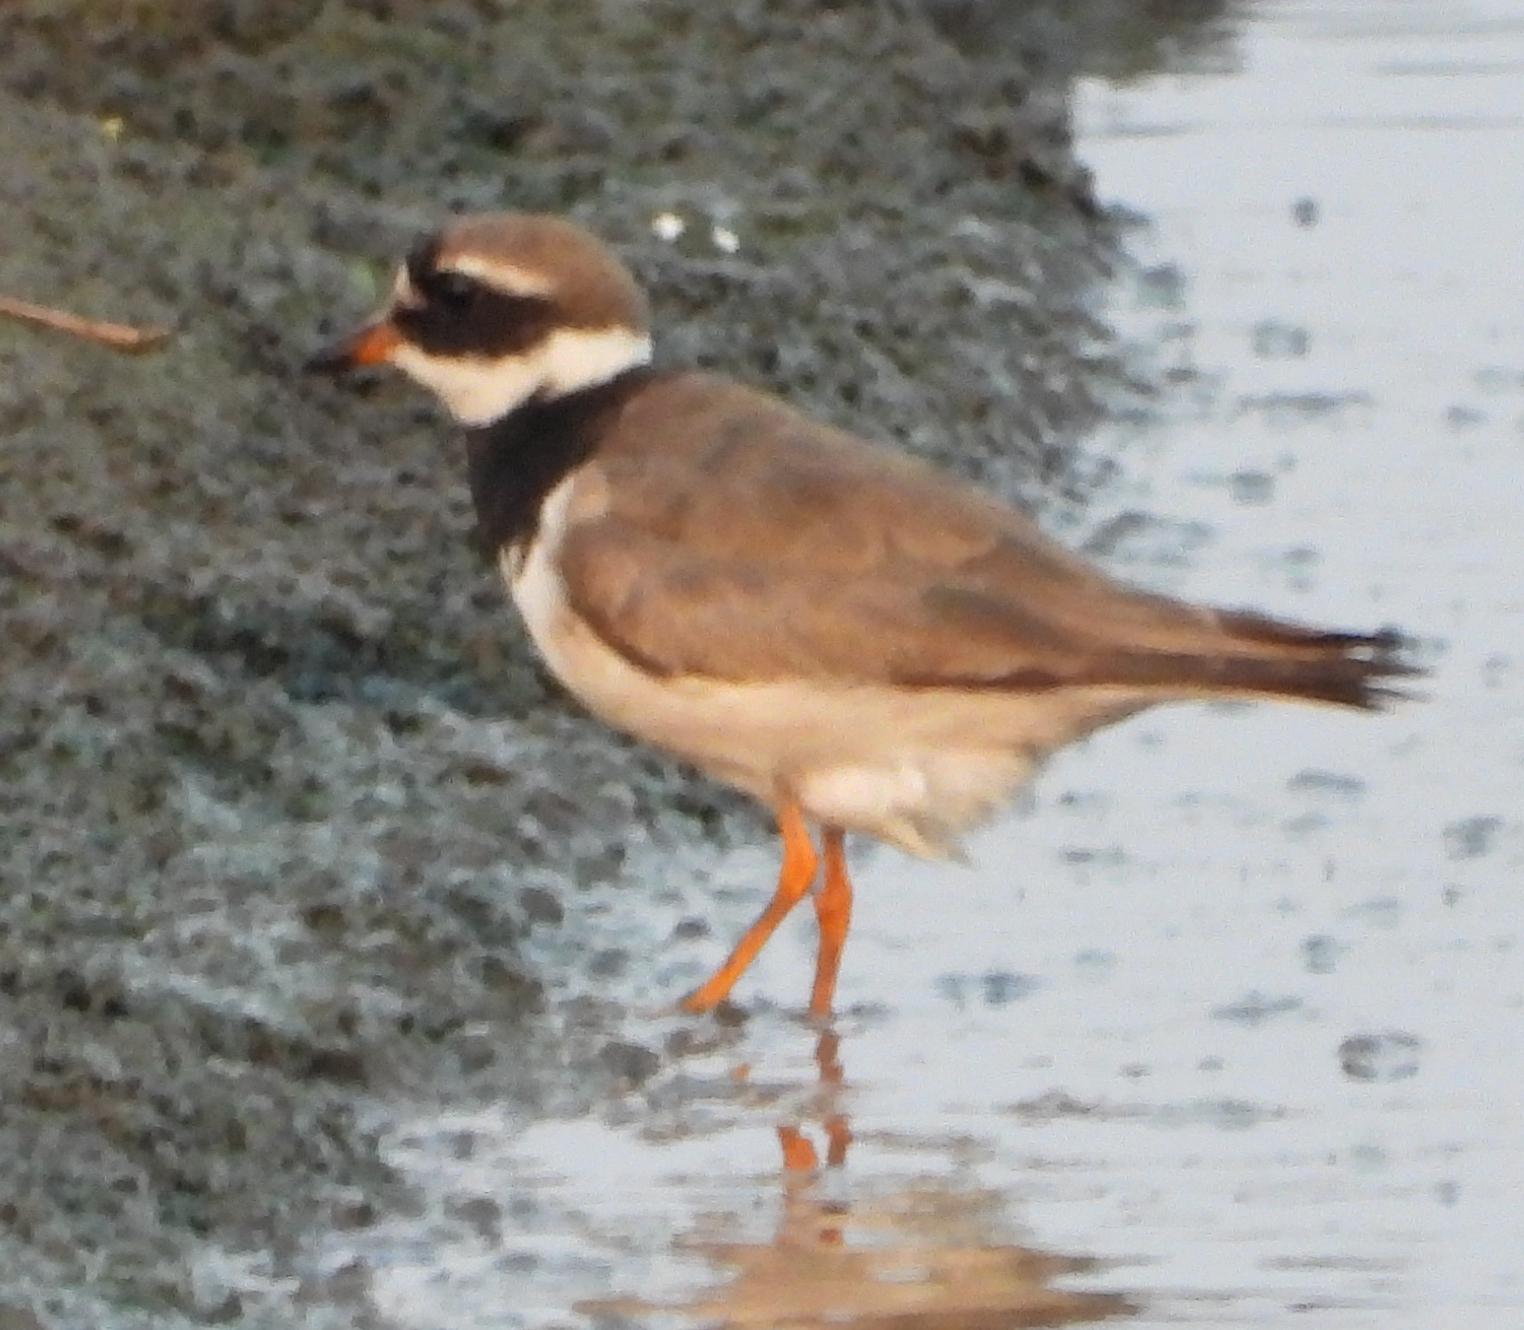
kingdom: Animalia
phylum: Chordata
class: Aves
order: Charadriiformes
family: Charadriidae
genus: Charadrius
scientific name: Charadrius hiaticula
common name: Common ringed plover
